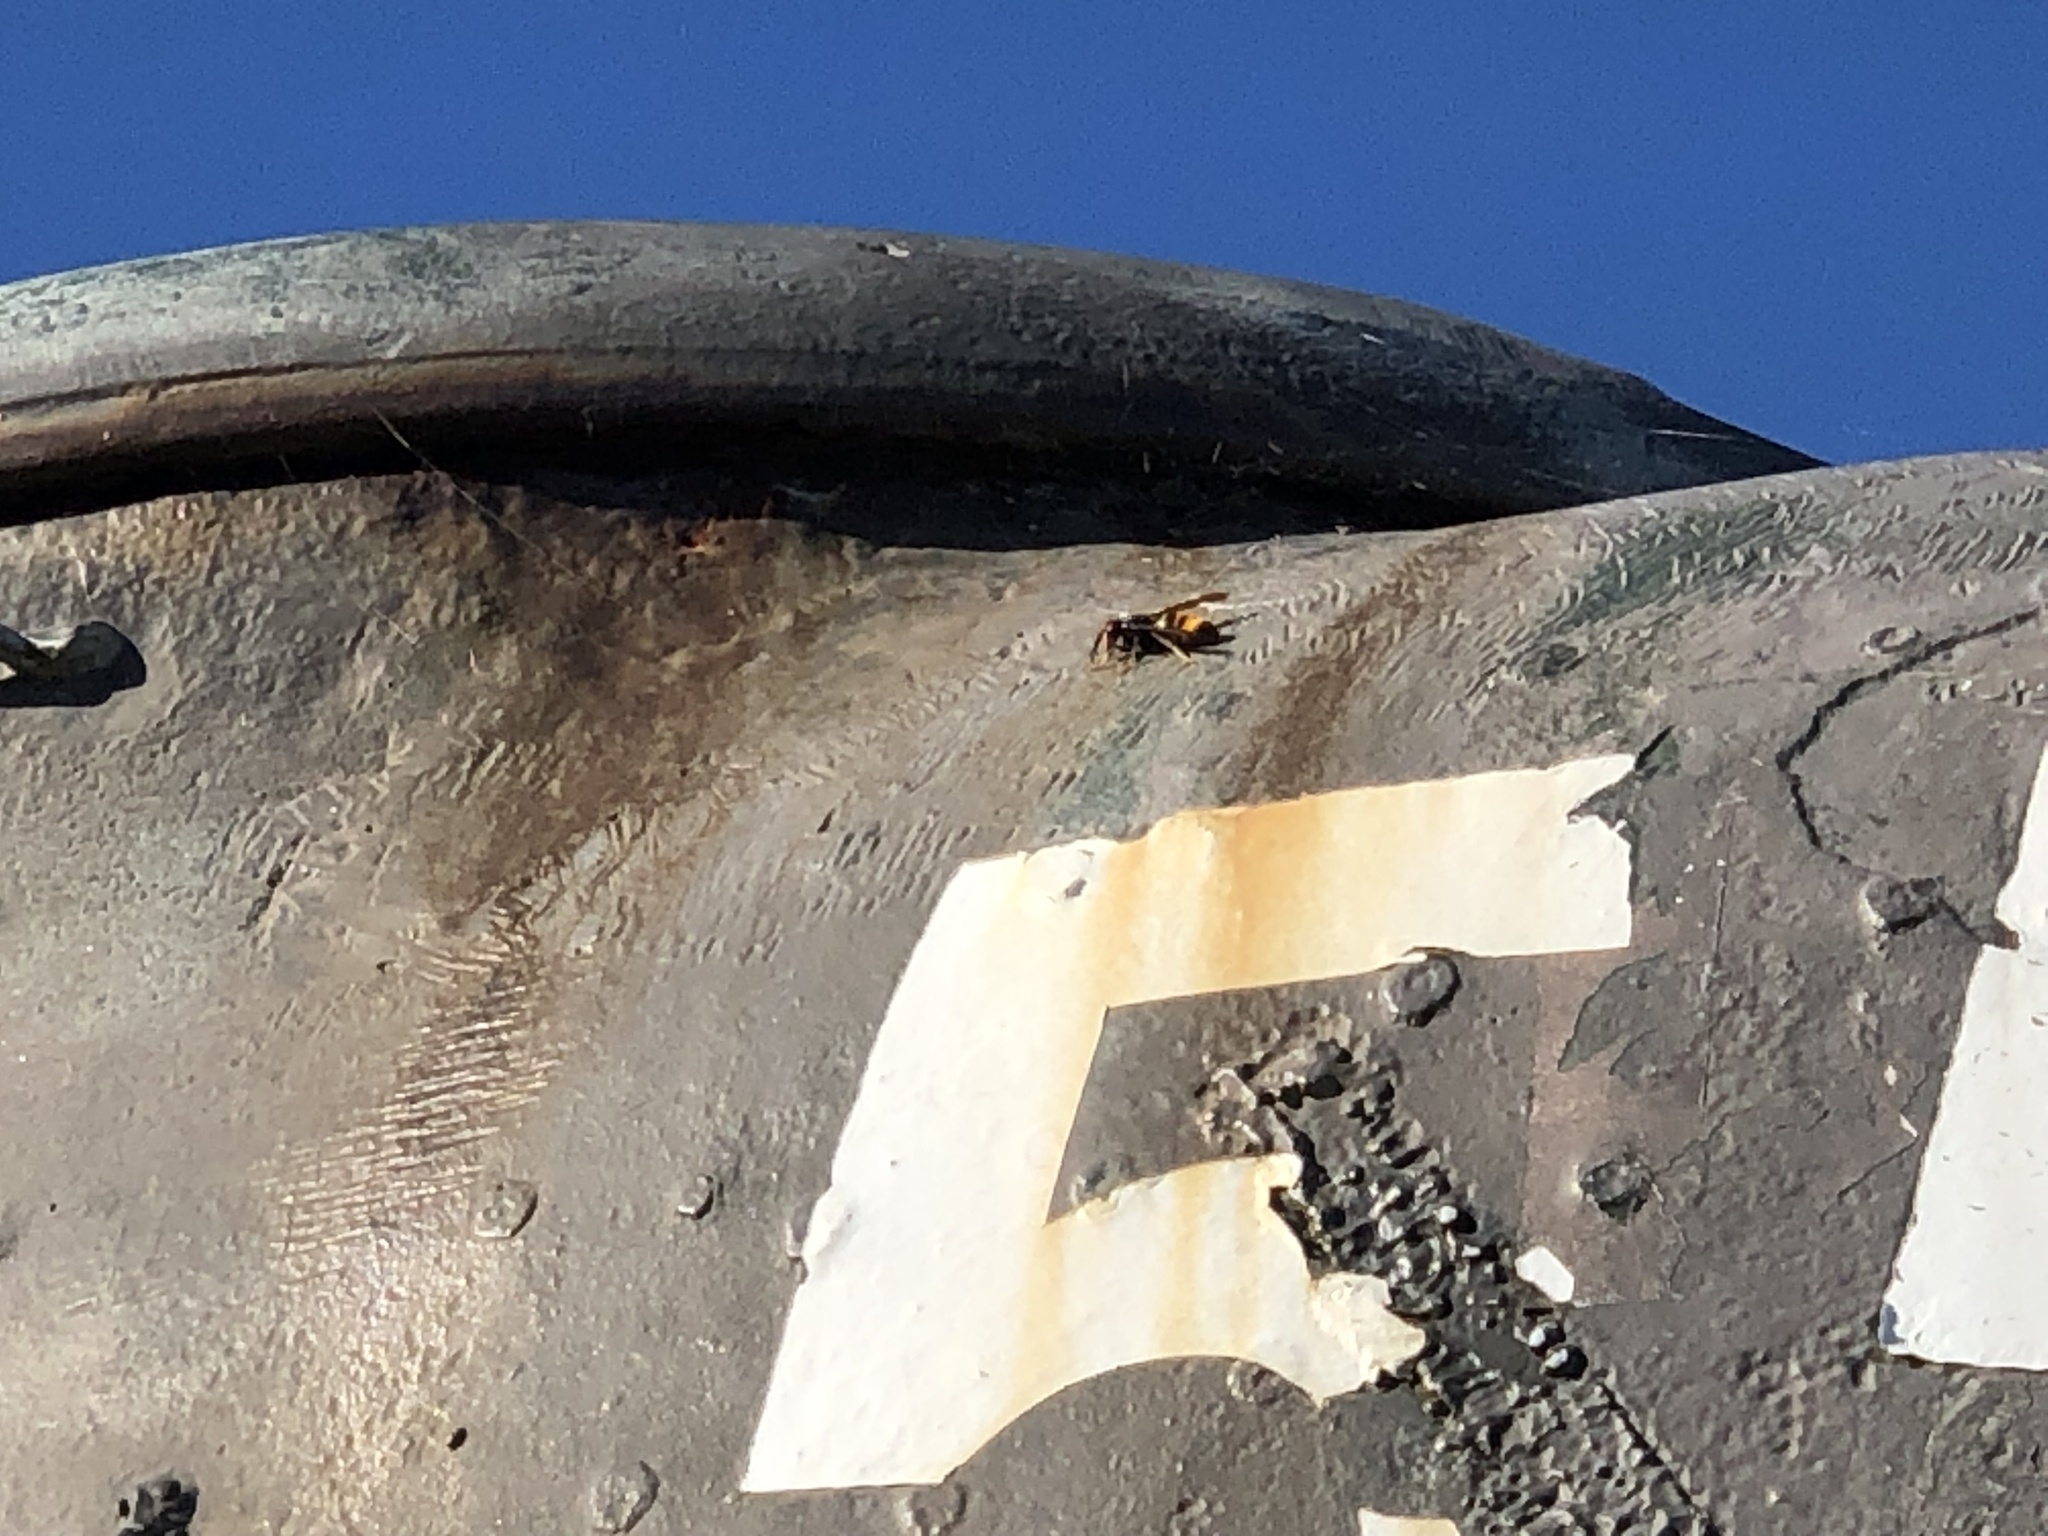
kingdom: Animalia
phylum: Arthropoda
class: Insecta
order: Hymenoptera
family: Vespidae
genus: Vespa
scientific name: Vespa velutina
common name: Asian hornet
